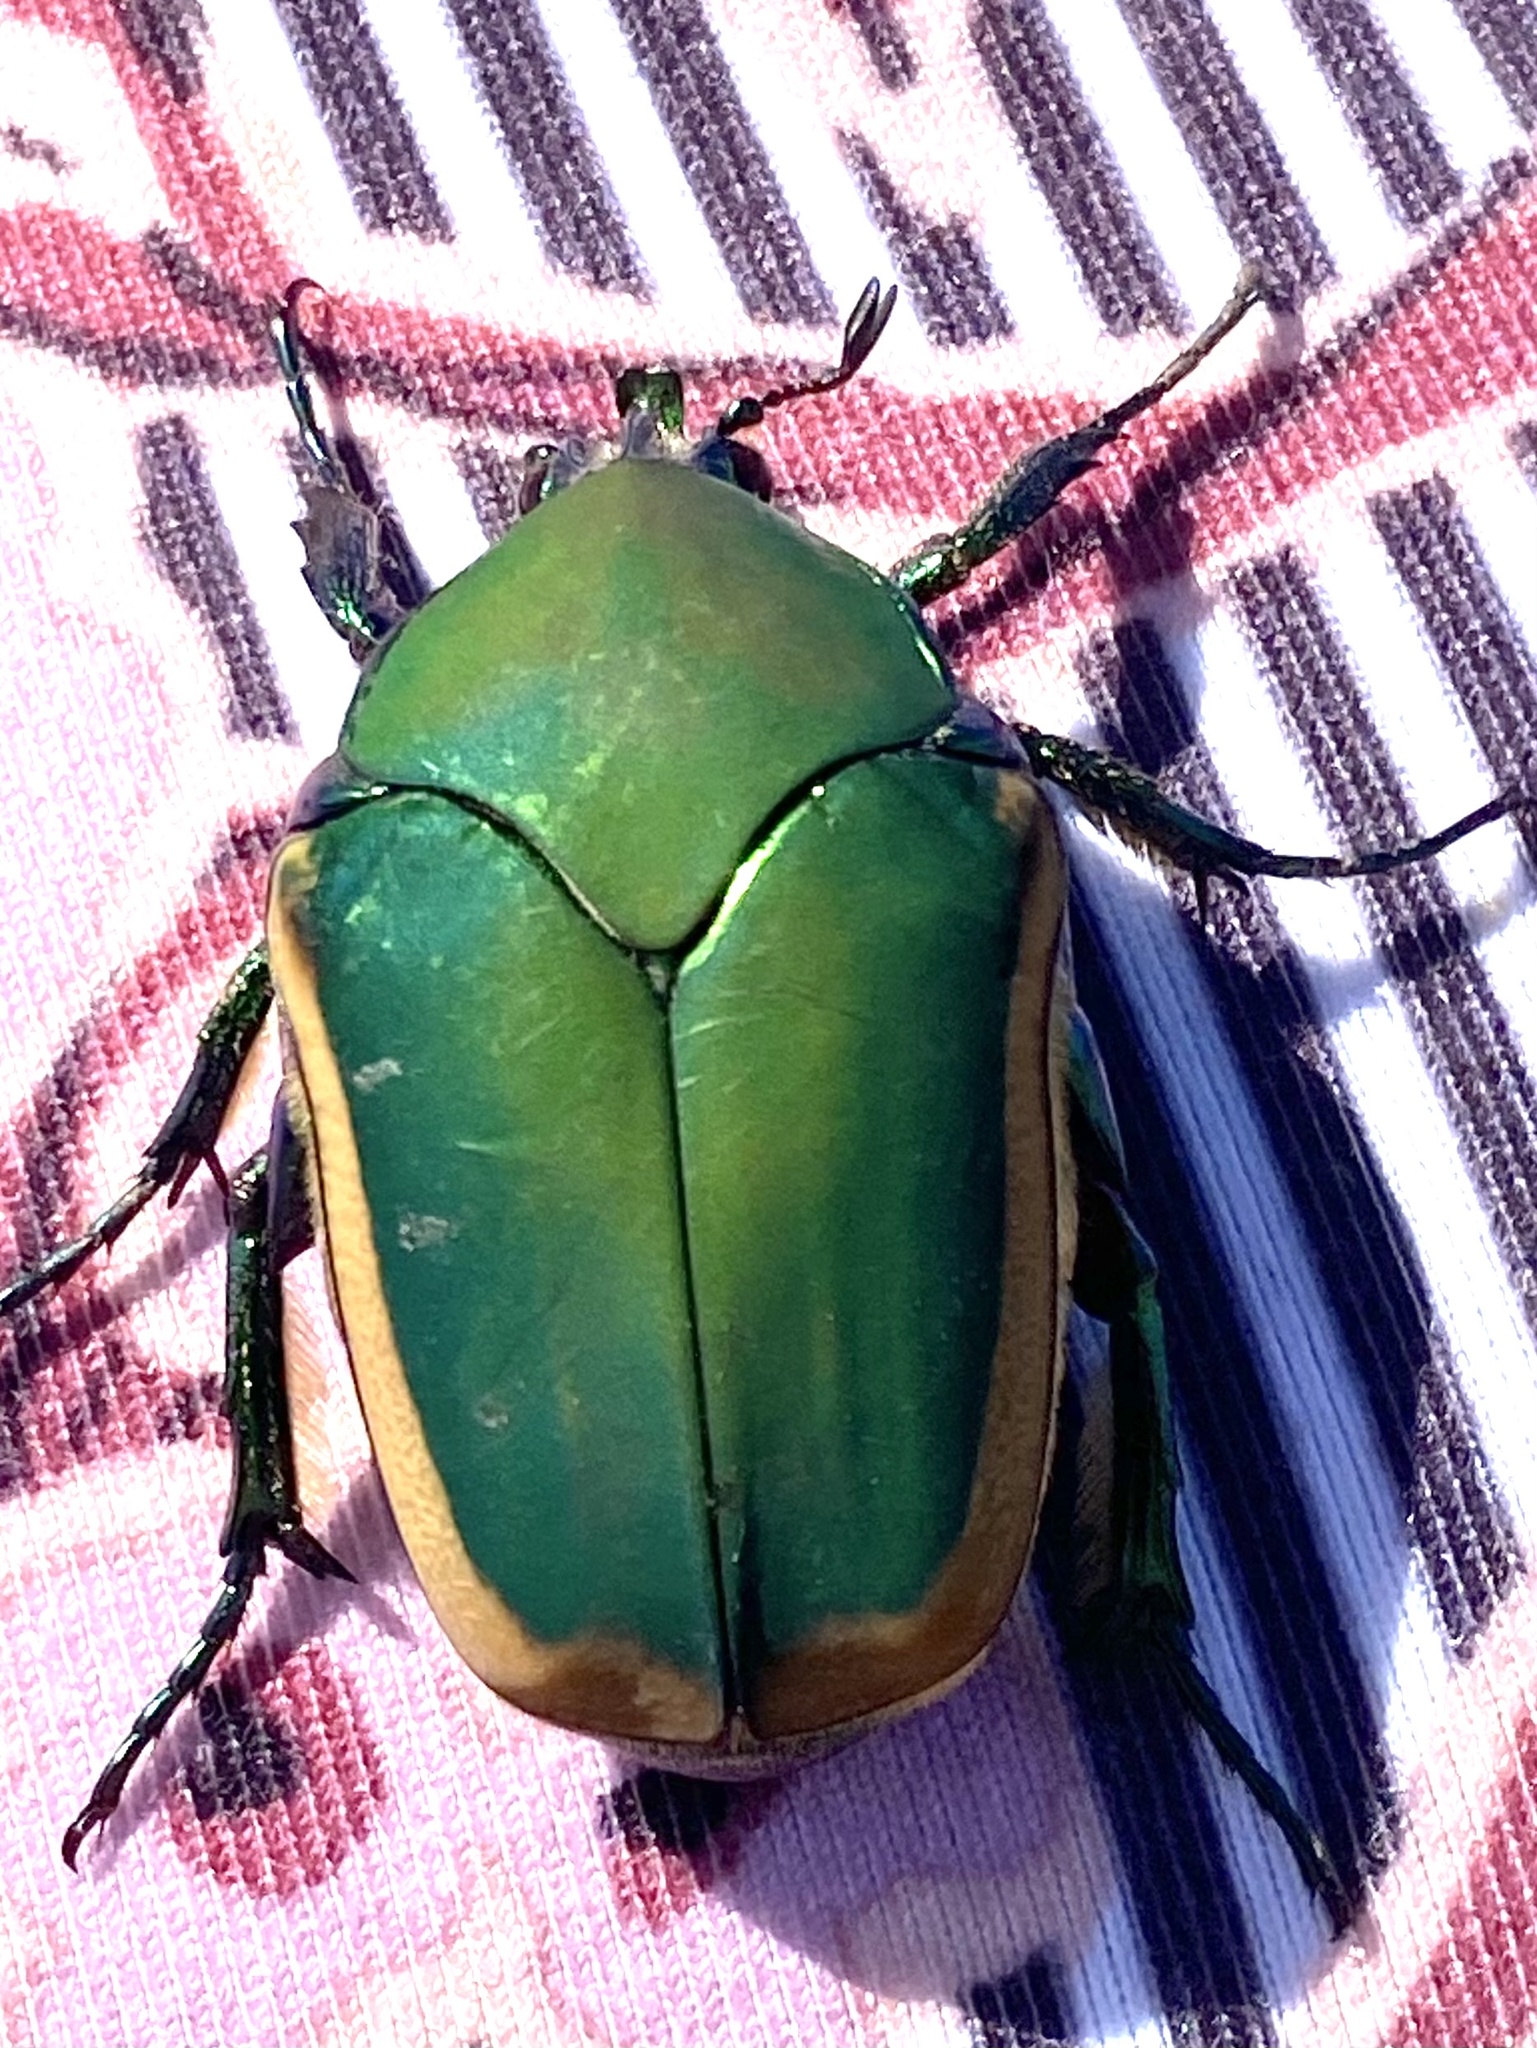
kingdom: Animalia
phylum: Arthropoda
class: Insecta
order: Coleoptera
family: Scarabaeidae
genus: Cotinis
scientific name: Cotinis mutabilis
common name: Figeater beetle
